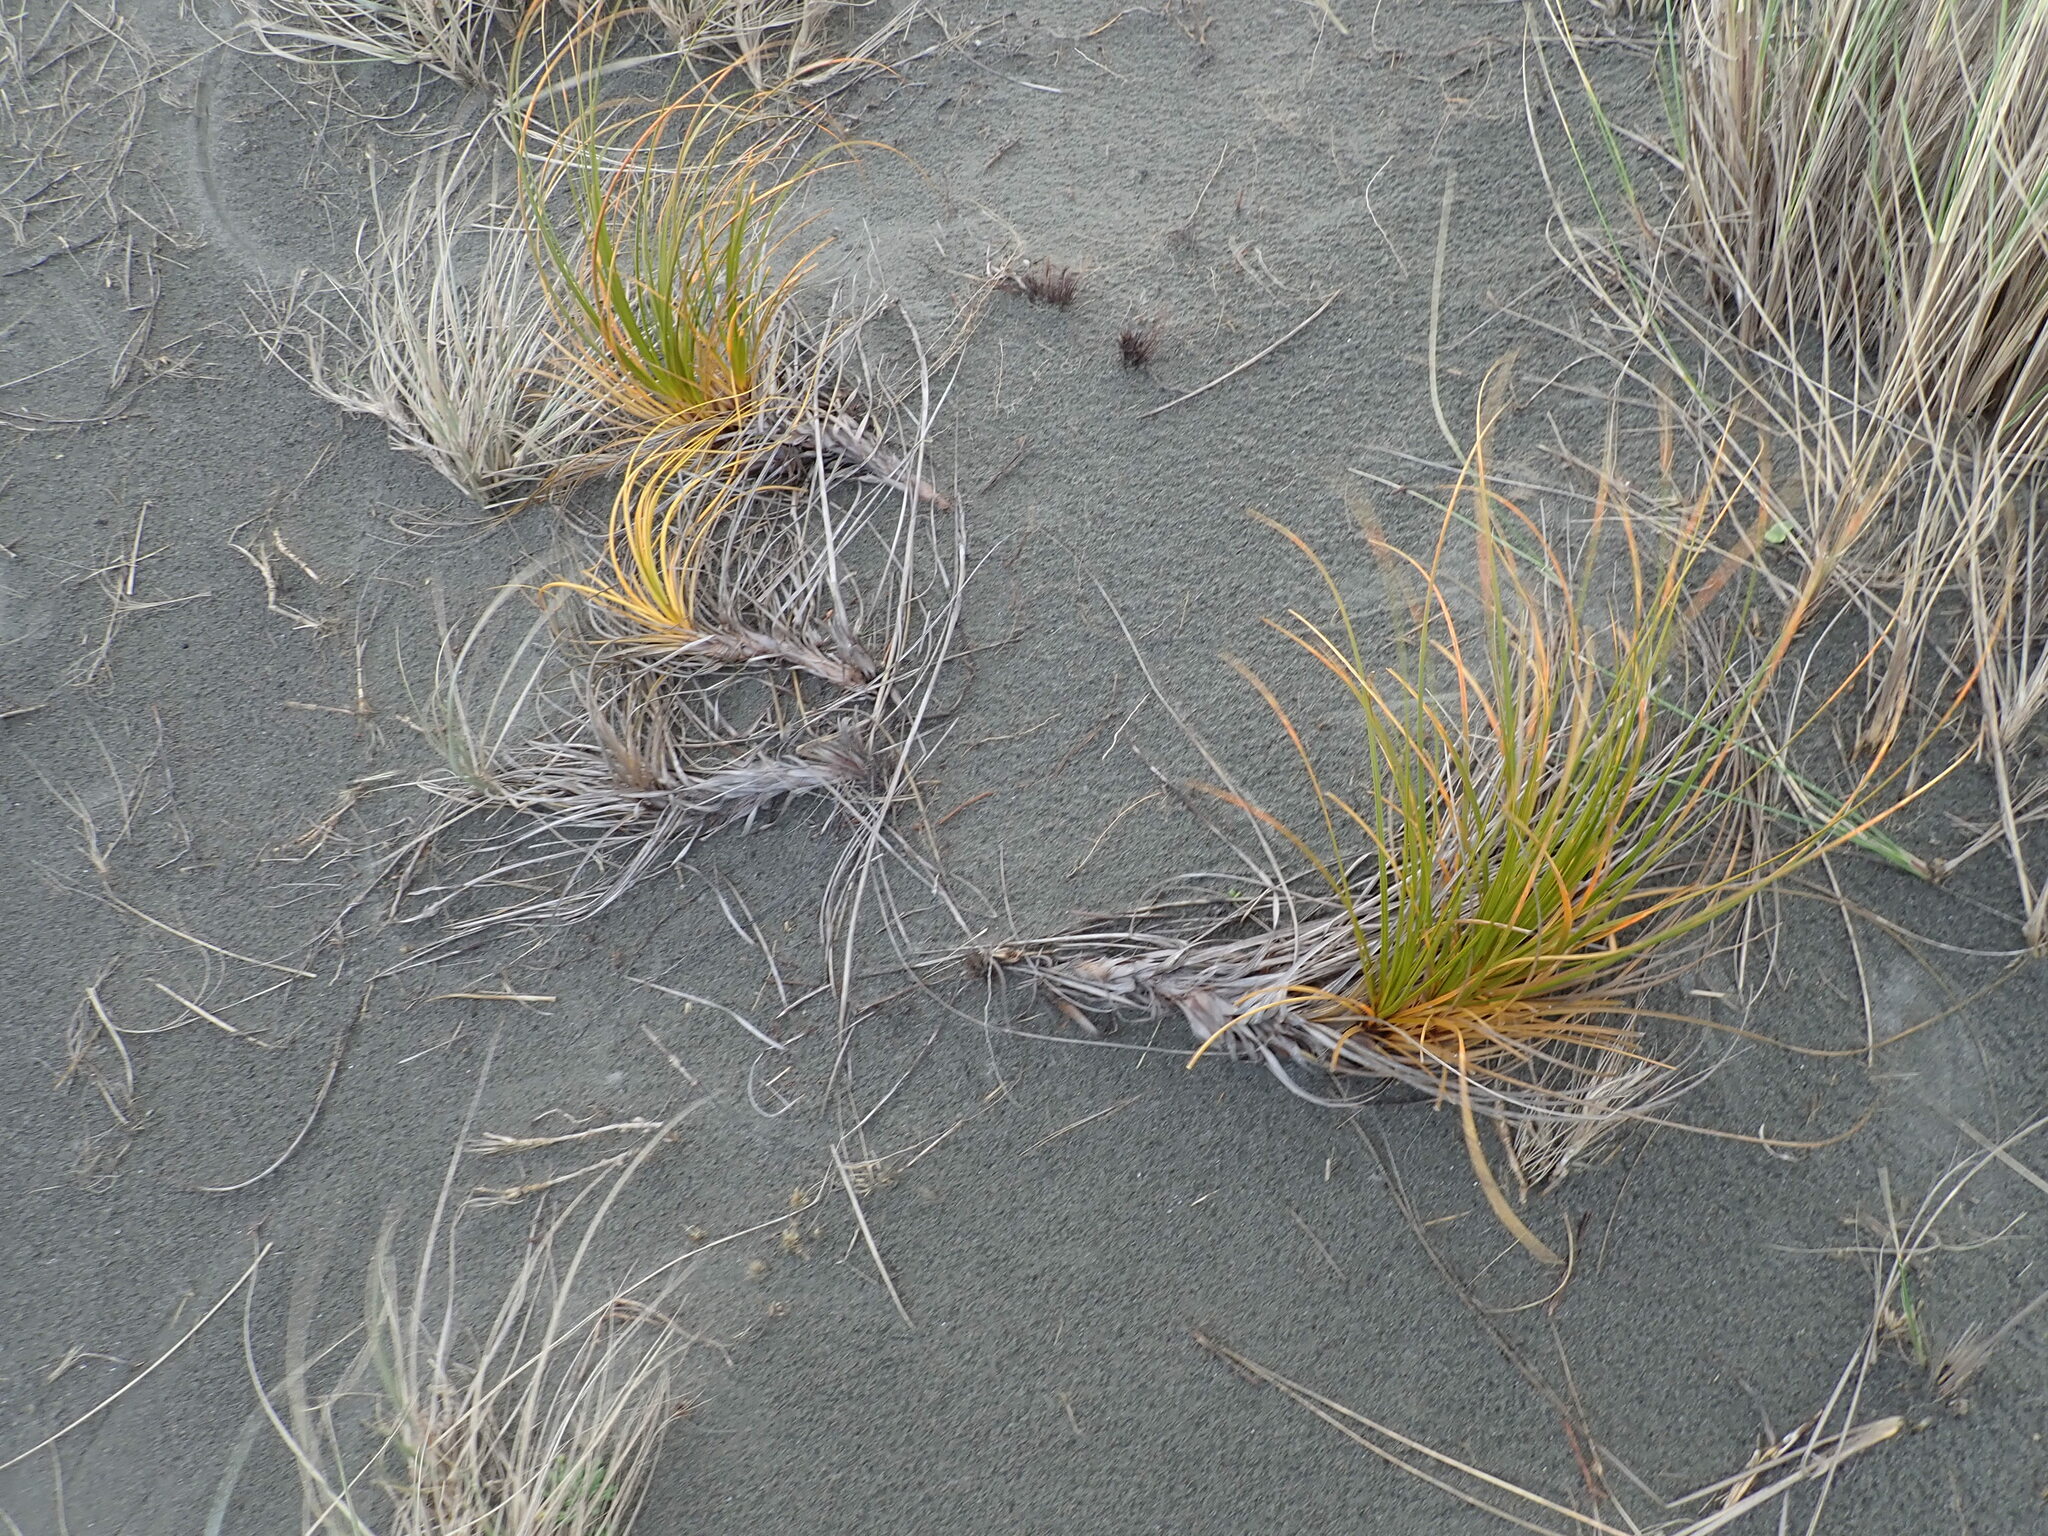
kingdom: Plantae
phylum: Tracheophyta
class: Liliopsida
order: Poales
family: Cyperaceae
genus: Ficinia
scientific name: Ficinia spiralis
